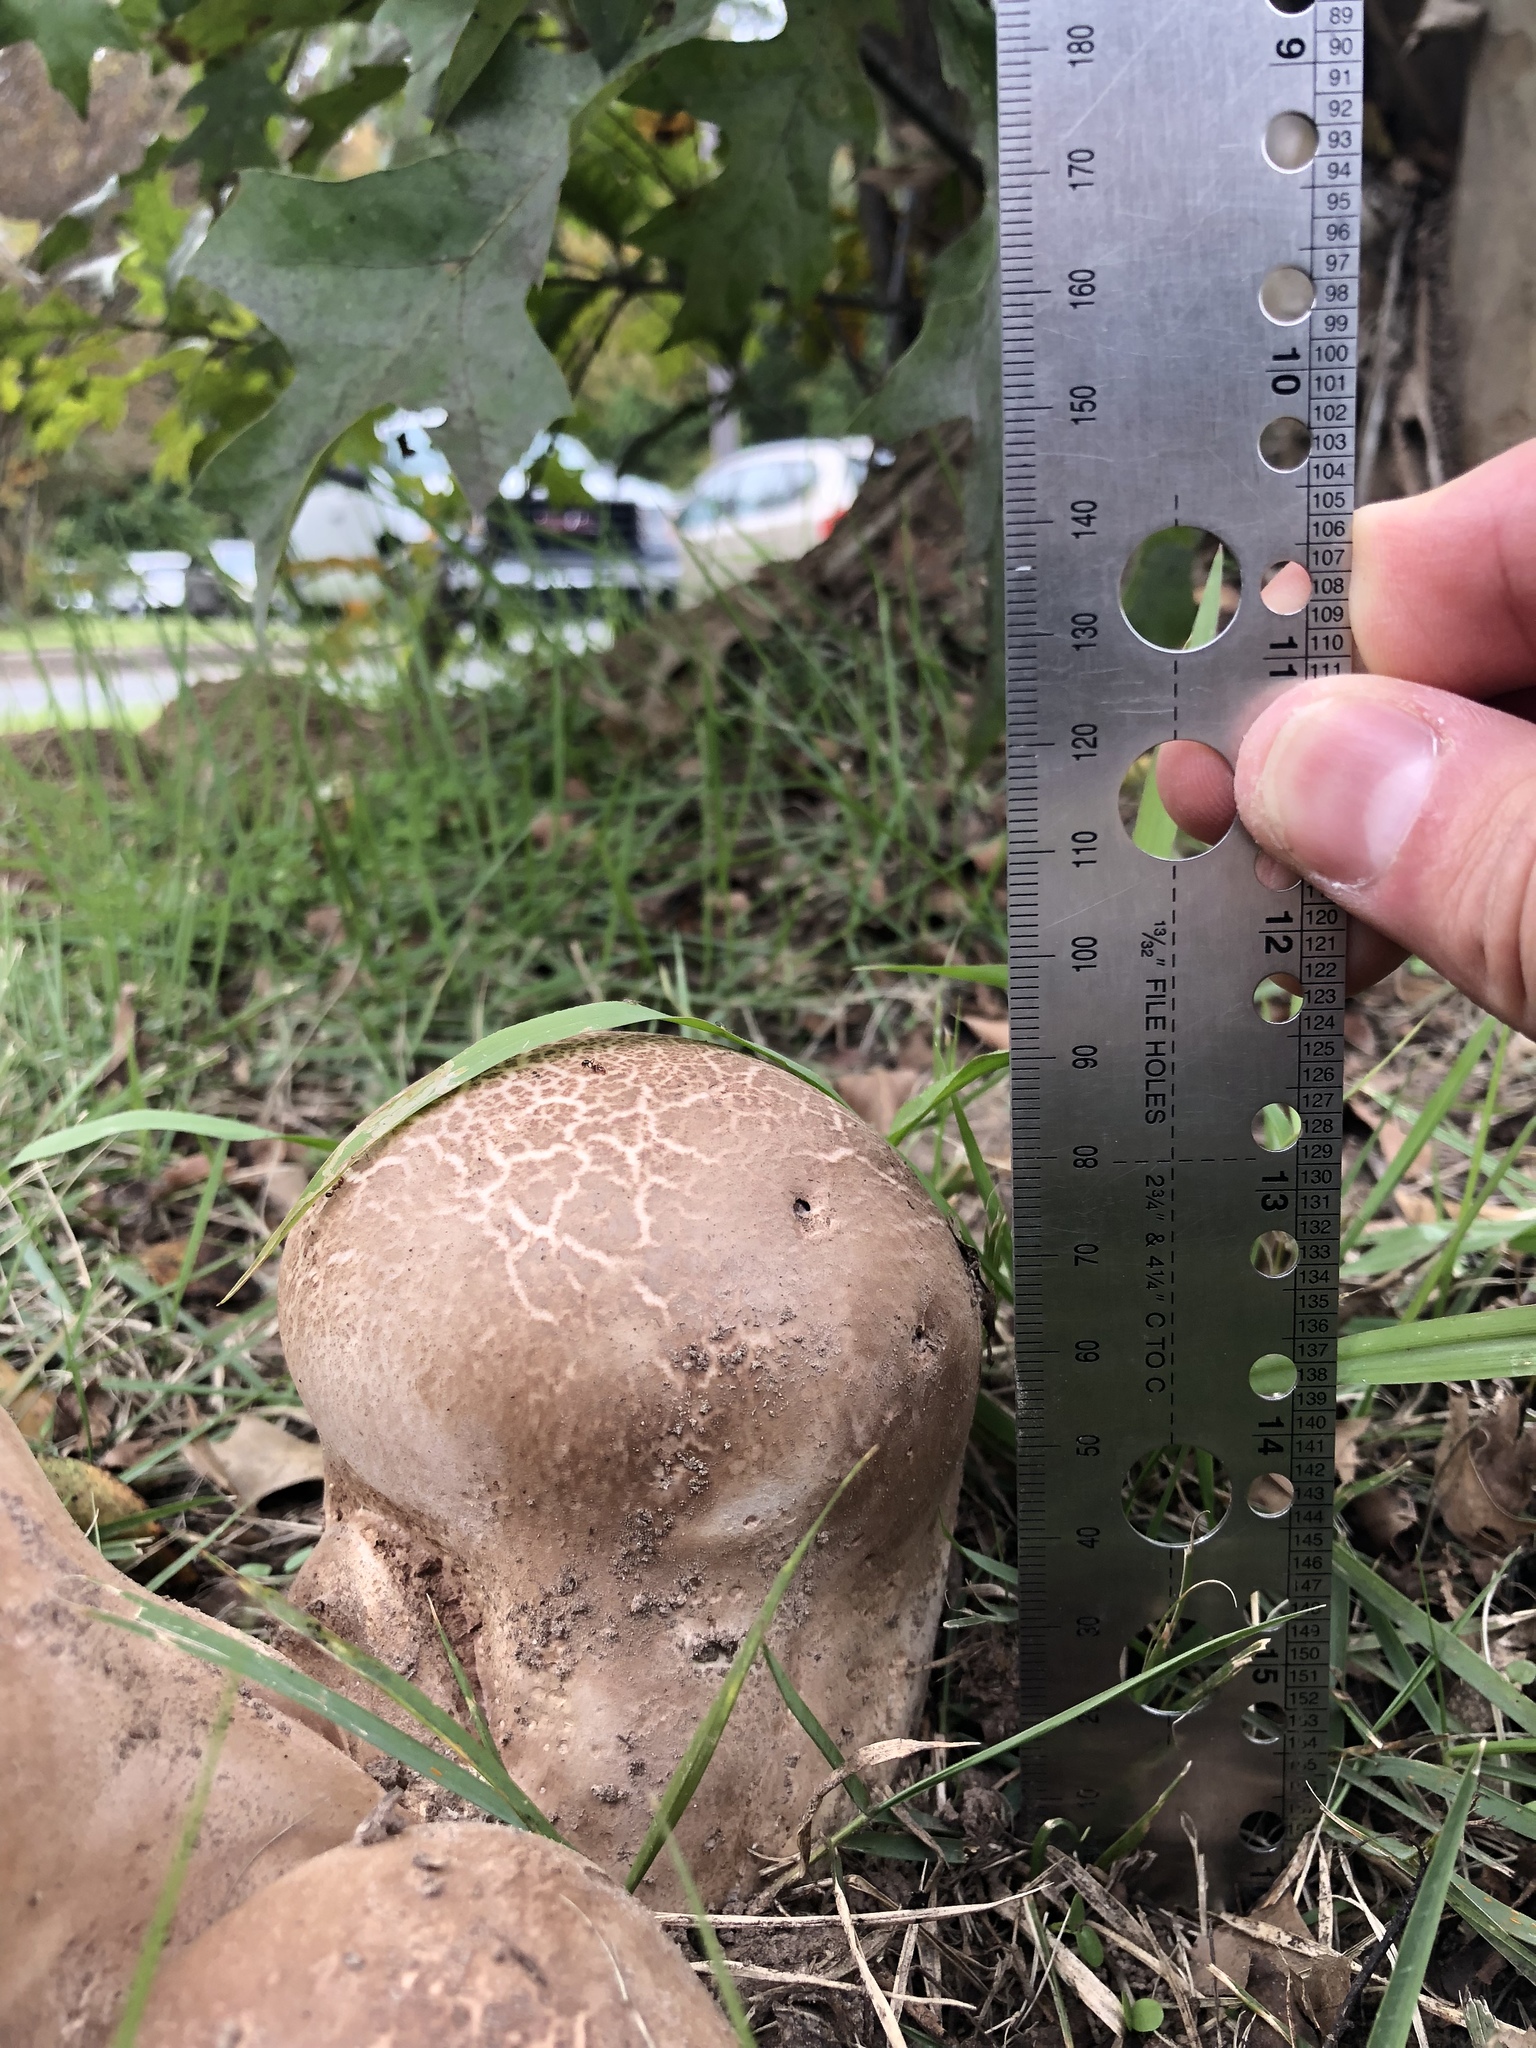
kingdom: Fungi
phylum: Basidiomycota
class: Agaricomycetes
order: Agaricales
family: Lycoperdaceae
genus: Calvatia
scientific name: Calvatia cyathiformis
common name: Purple-spored puffball
